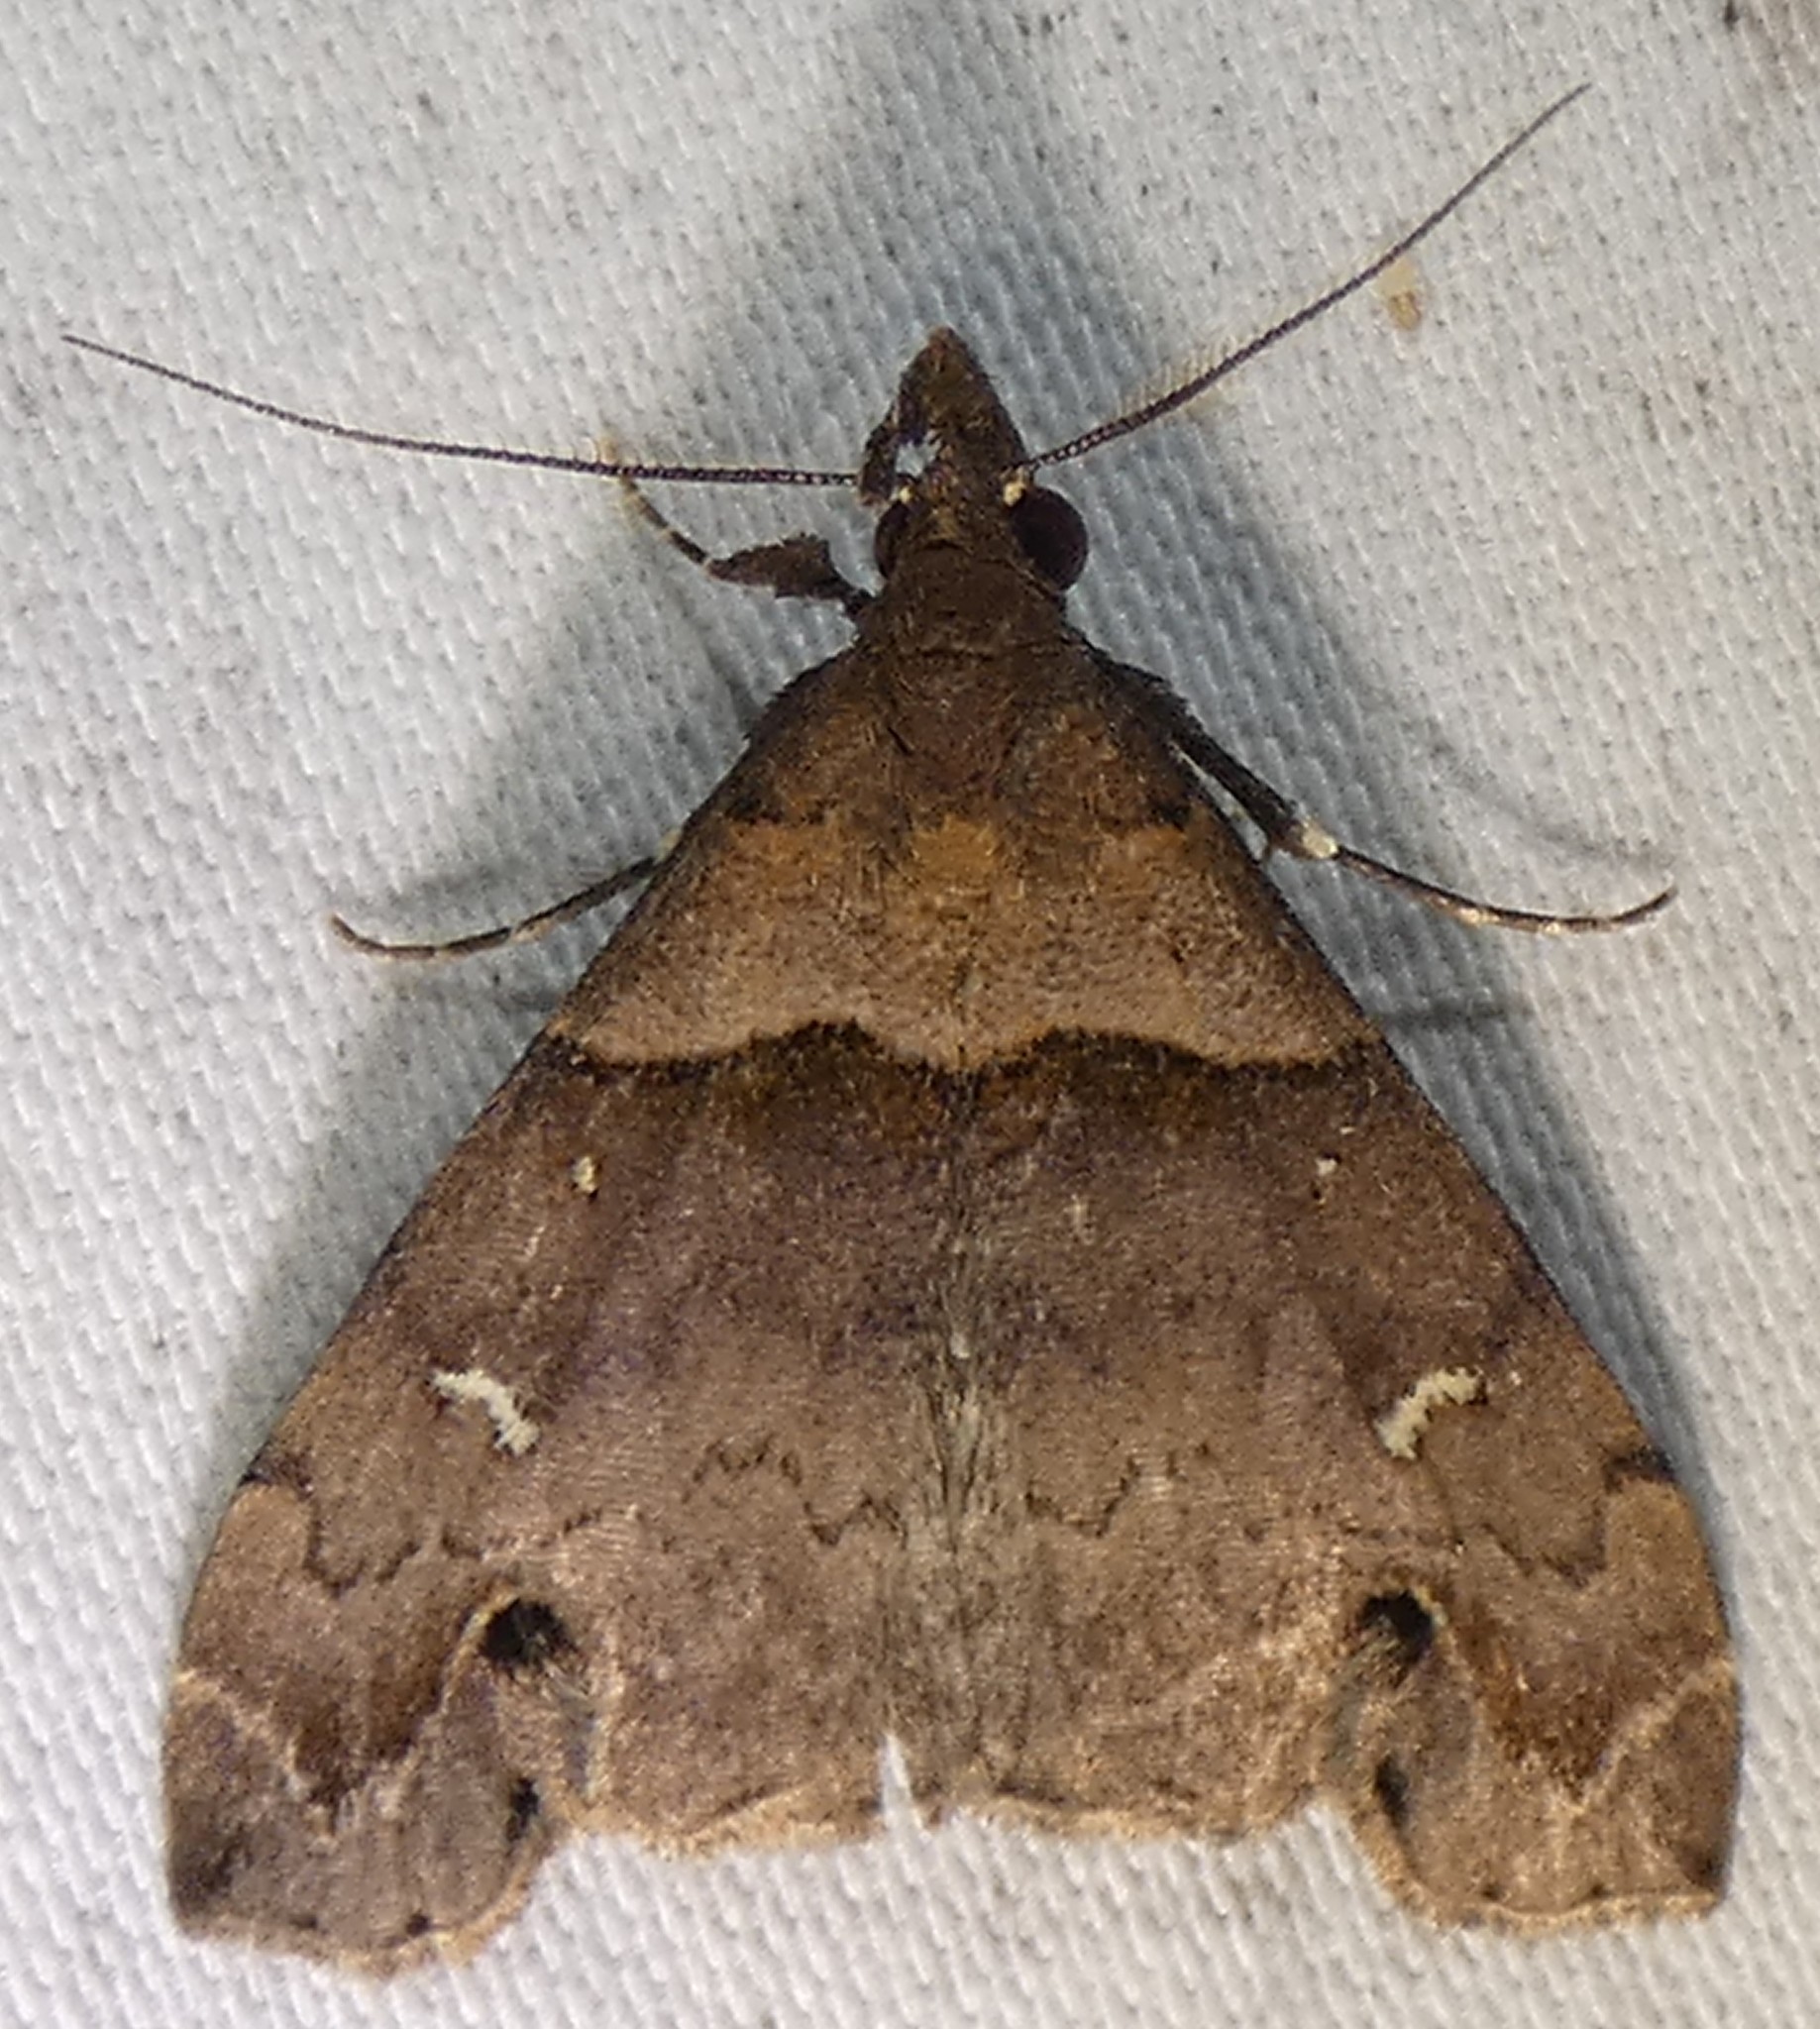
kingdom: Animalia
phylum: Arthropoda
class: Insecta
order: Lepidoptera
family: Erebidae
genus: Lascoria
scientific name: Lascoria ambigualis
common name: Ambiguous moth
